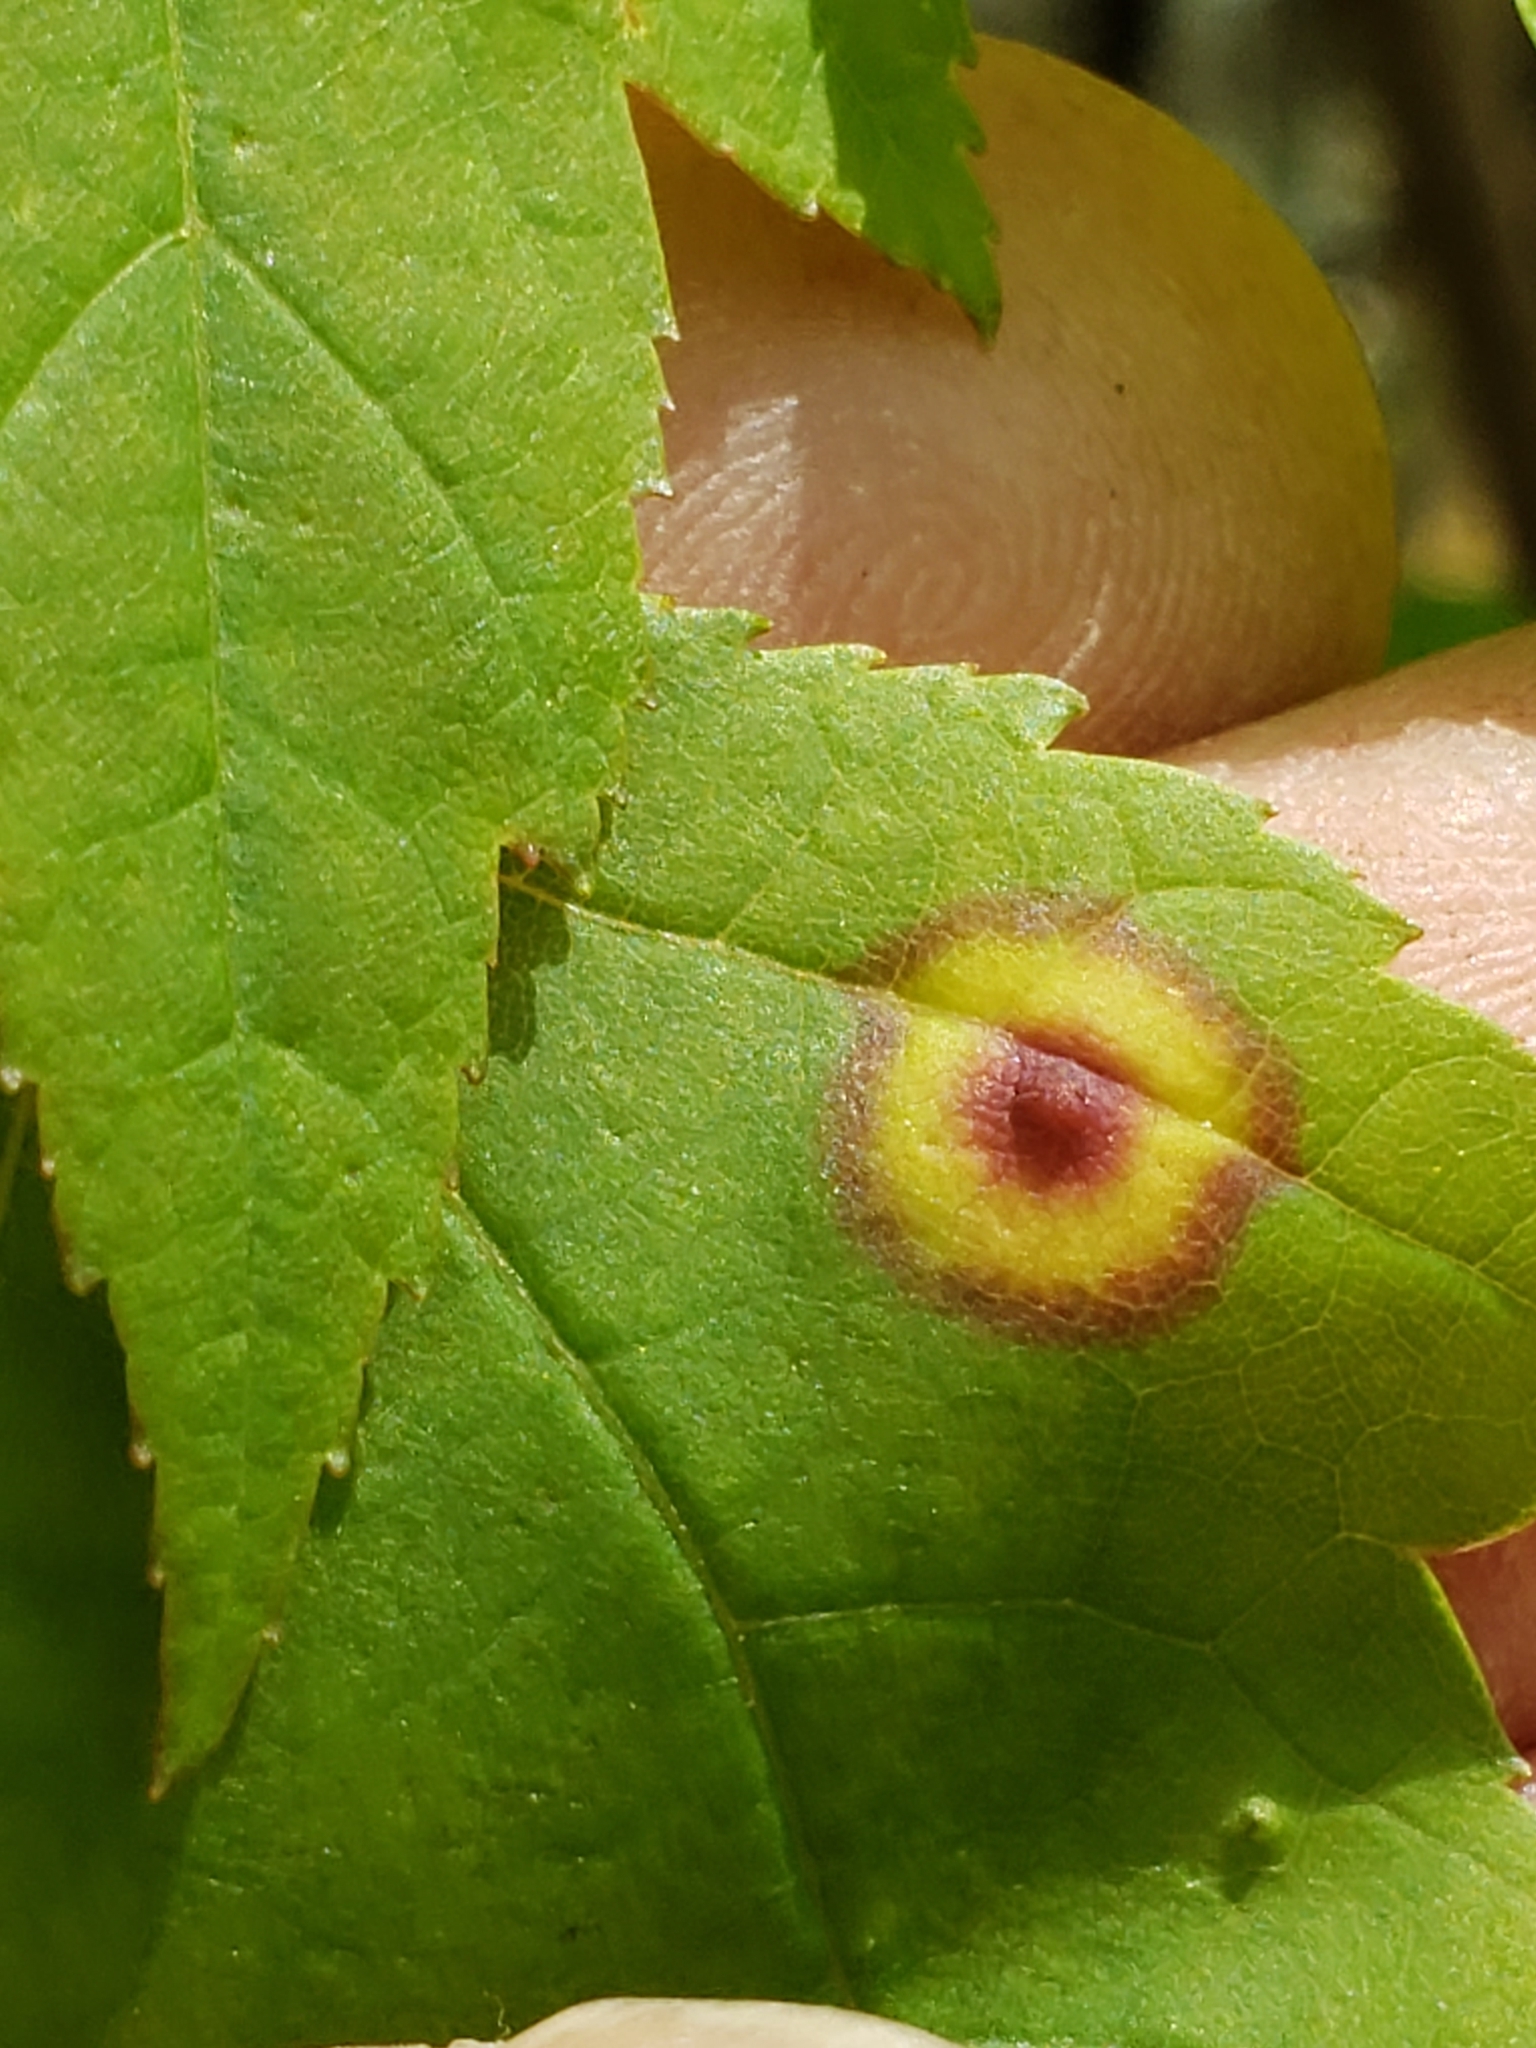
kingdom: Animalia
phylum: Arthropoda
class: Insecta
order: Diptera
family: Cecidomyiidae
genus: Acericecis
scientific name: Acericecis ocellaris
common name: Ocellate gall midge
